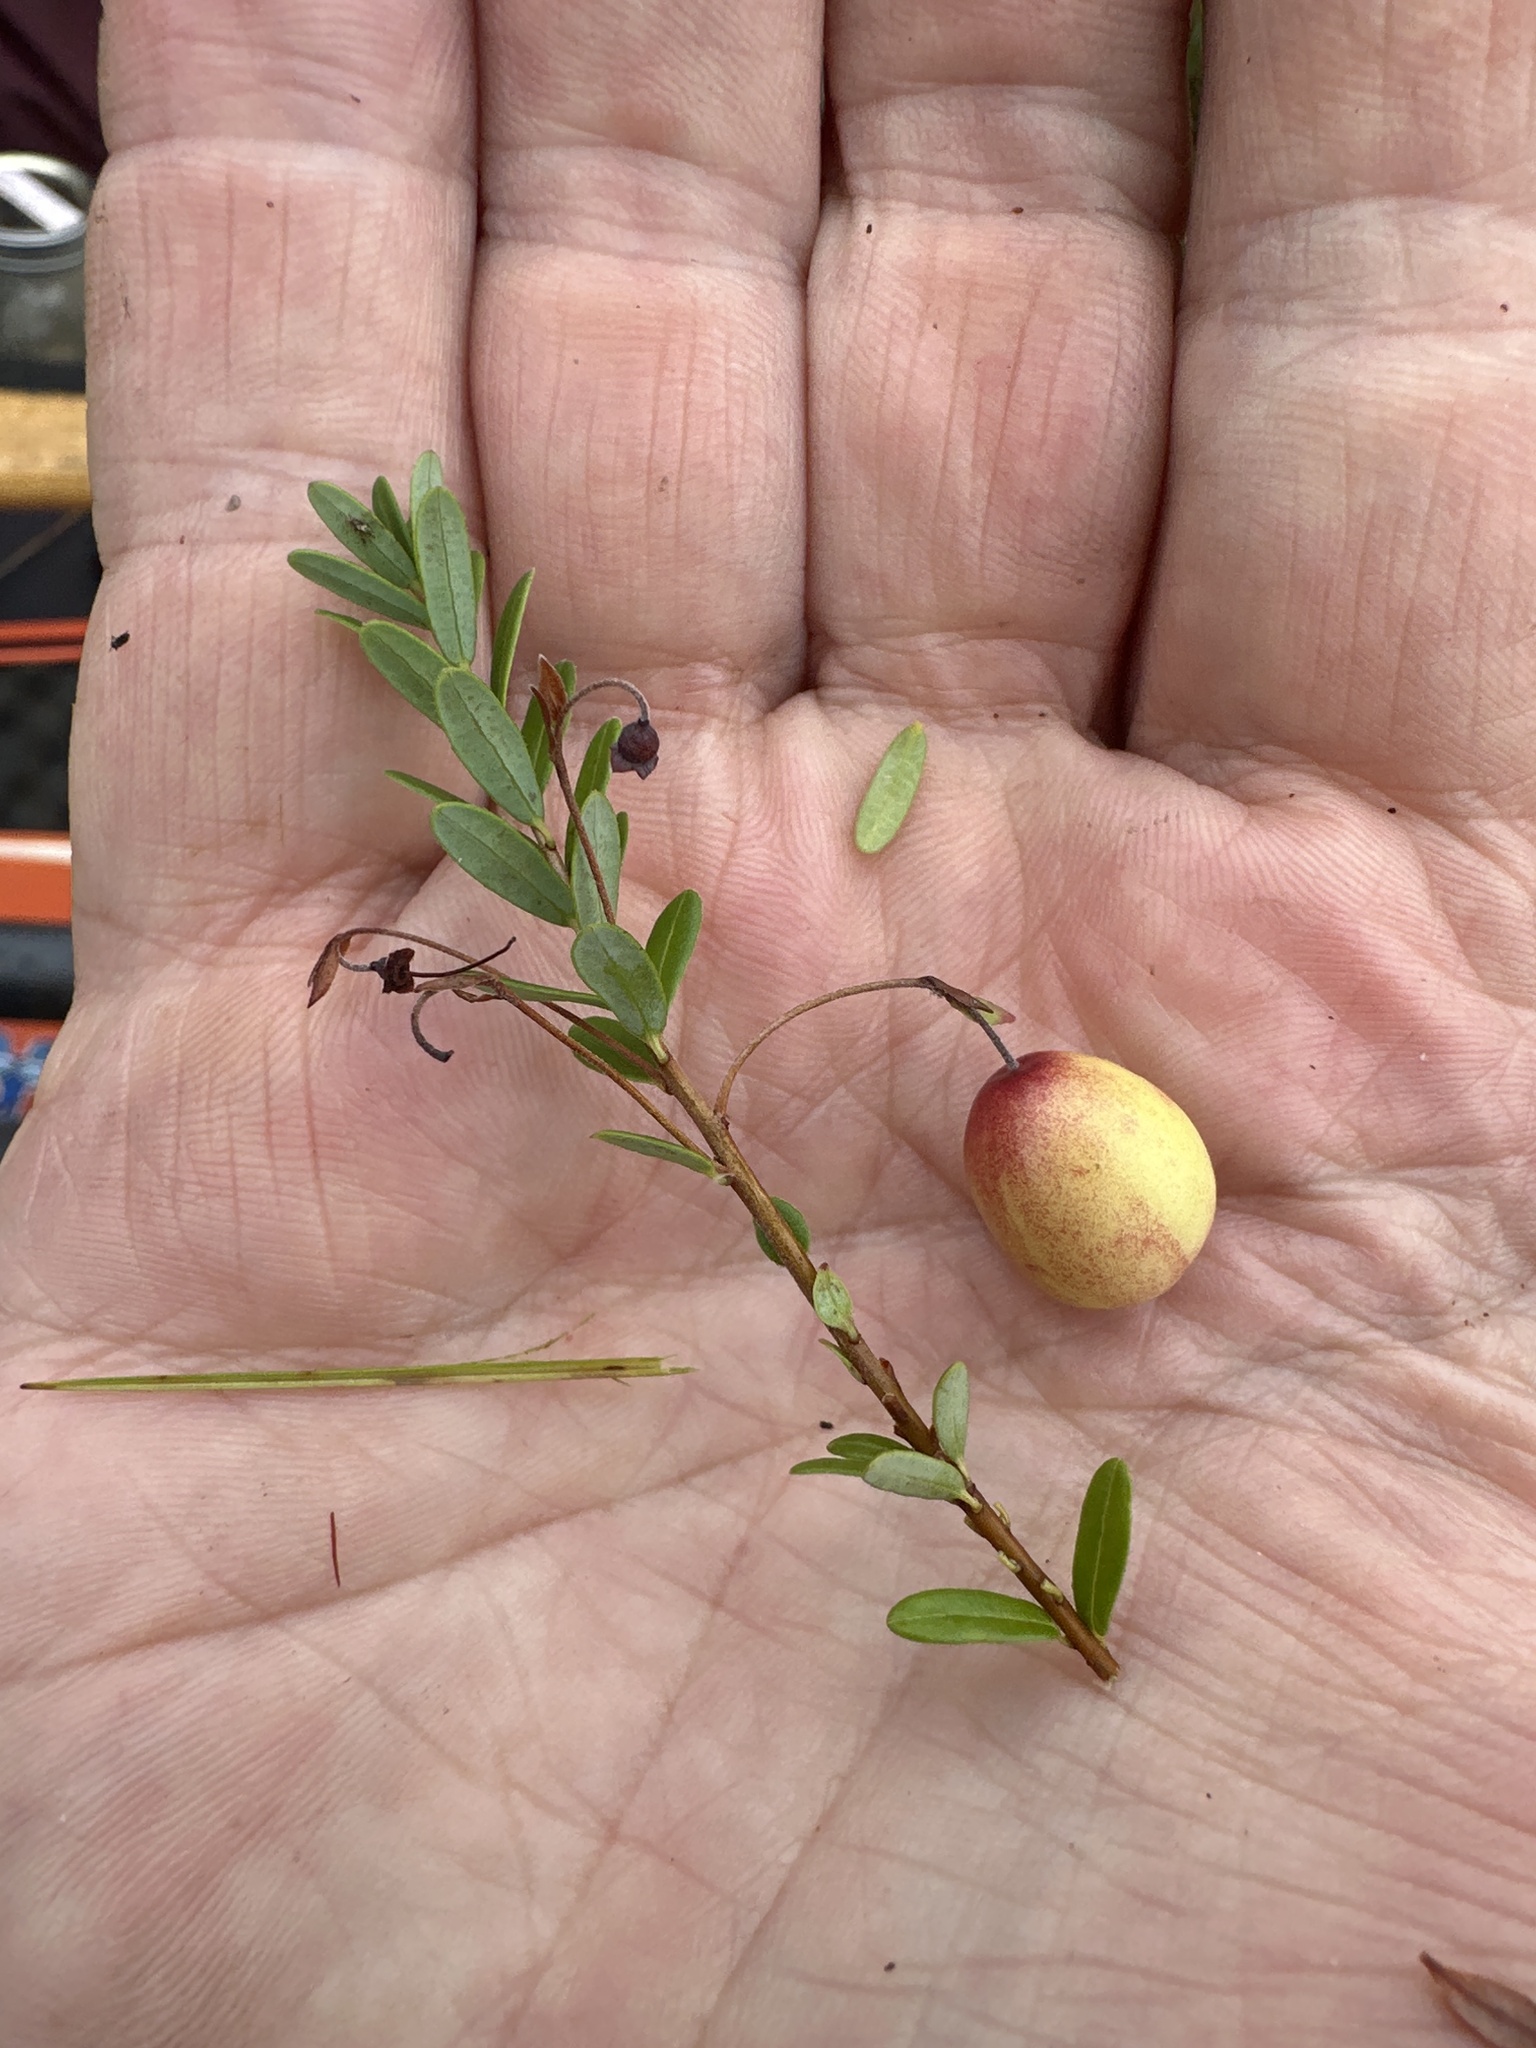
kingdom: Plantae
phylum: Tracheophyta
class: Magnoliopsida
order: Ericales
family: Ericaceae
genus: Vaccinium
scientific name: Vaccinium macrocarpon
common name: American cranberry
